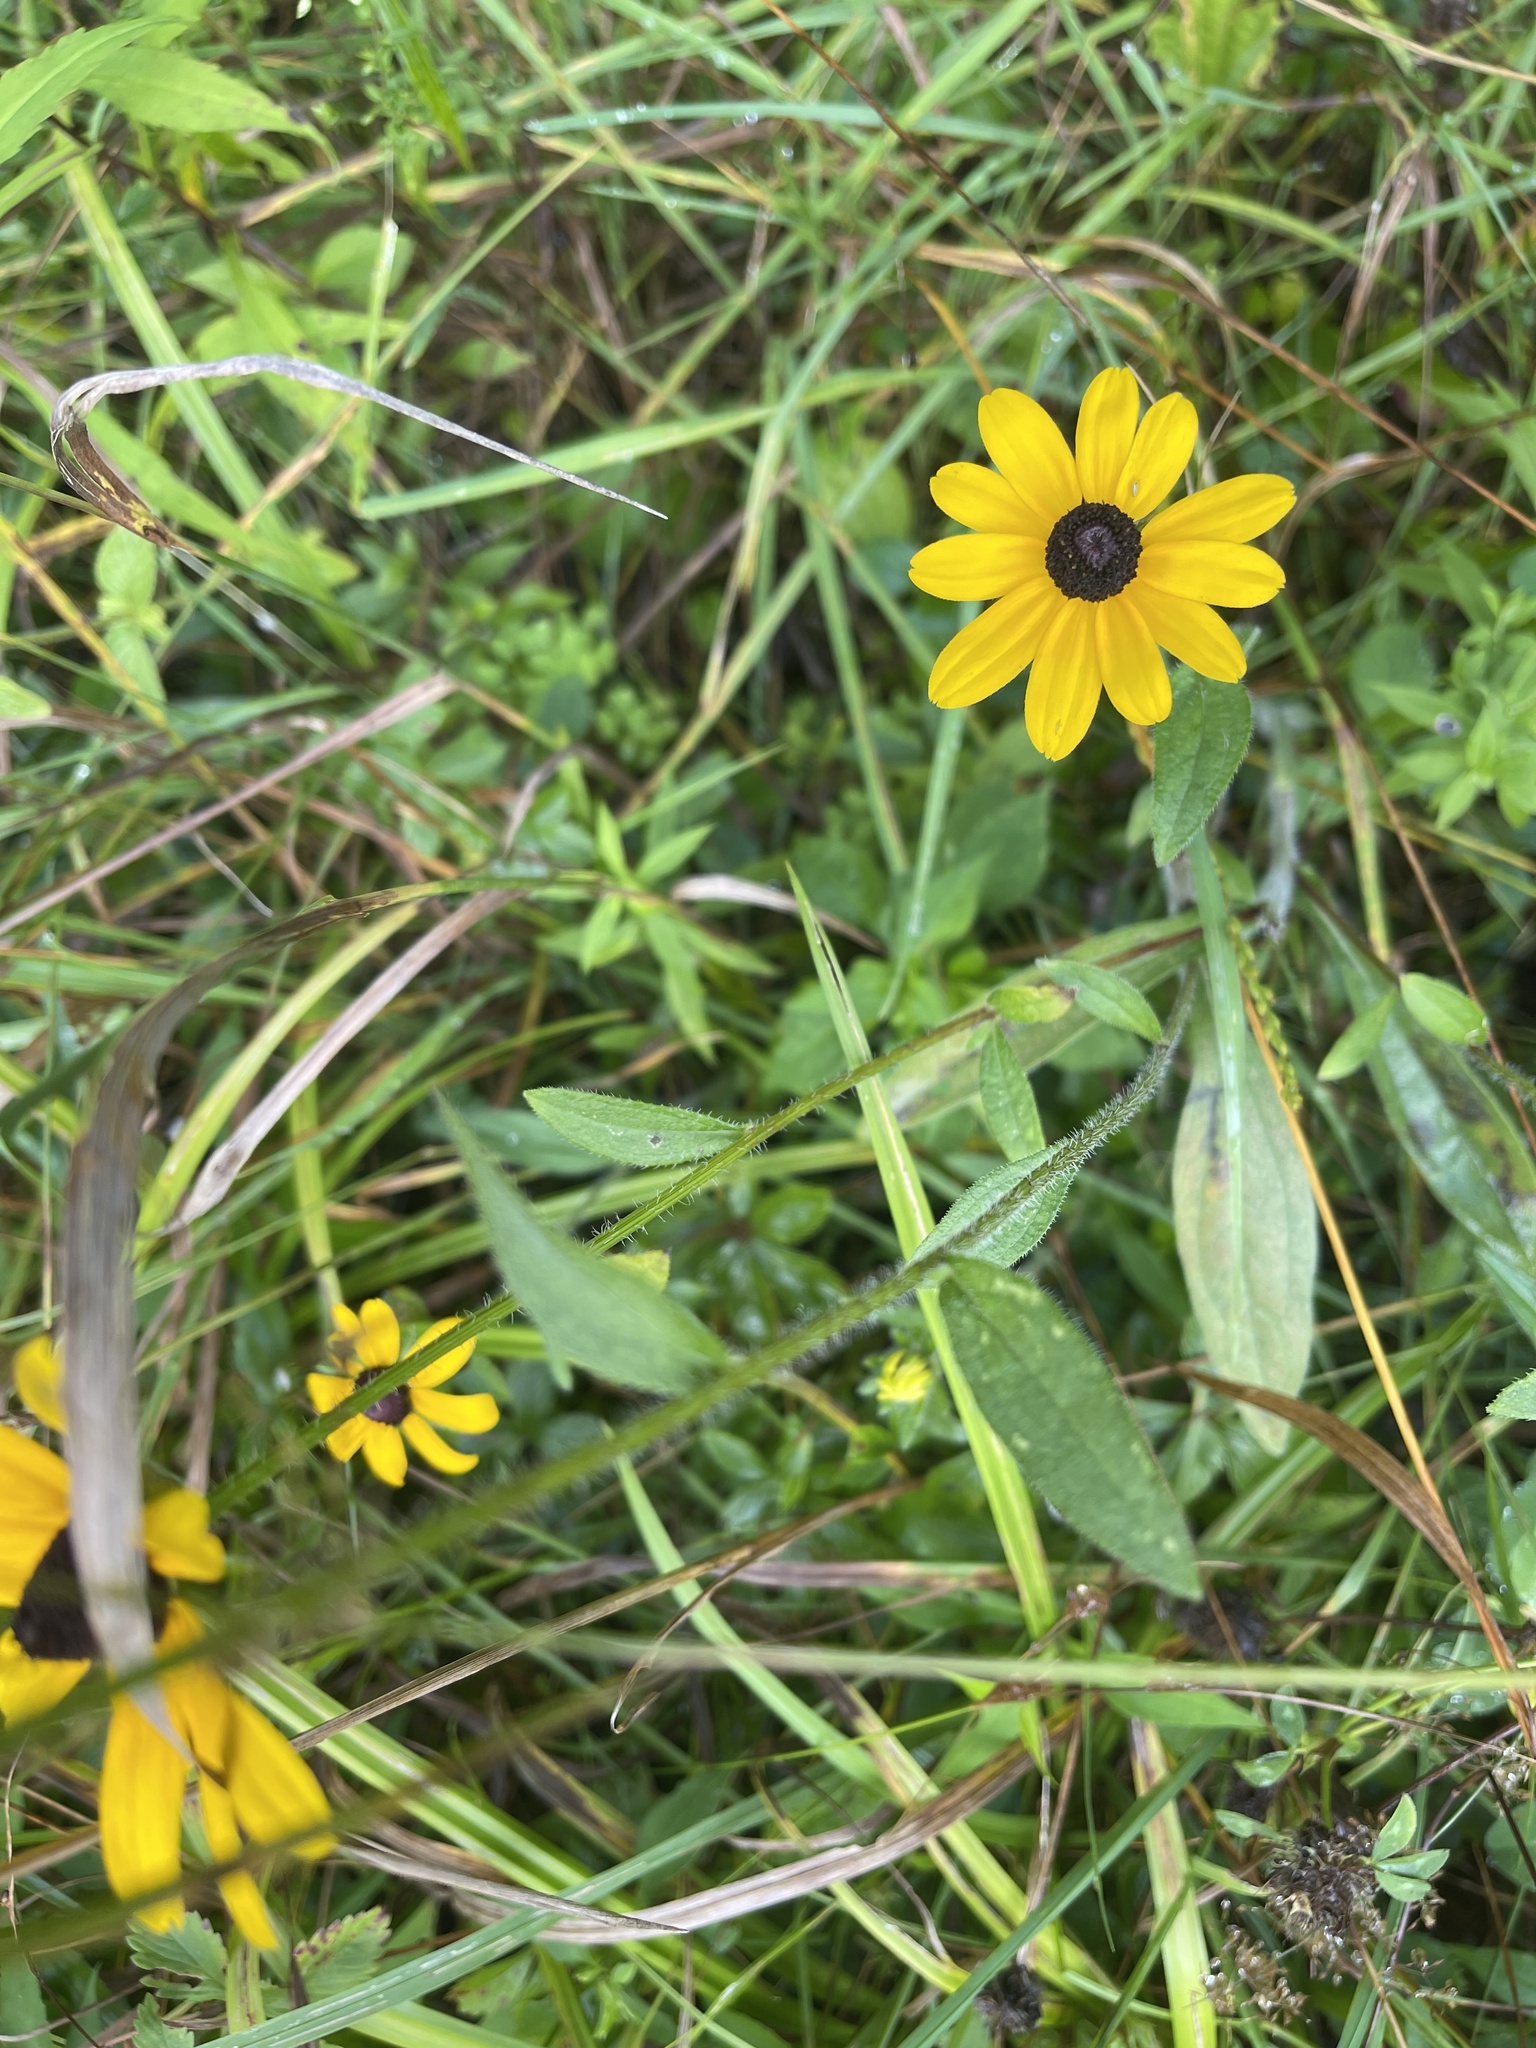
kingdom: Plantae
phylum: Tracheophyta
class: Magnoliopsida
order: Asterales
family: Asteraceae
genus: Rudbeckia
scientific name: Rudbeckia hirta
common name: Black-eyed-susan
